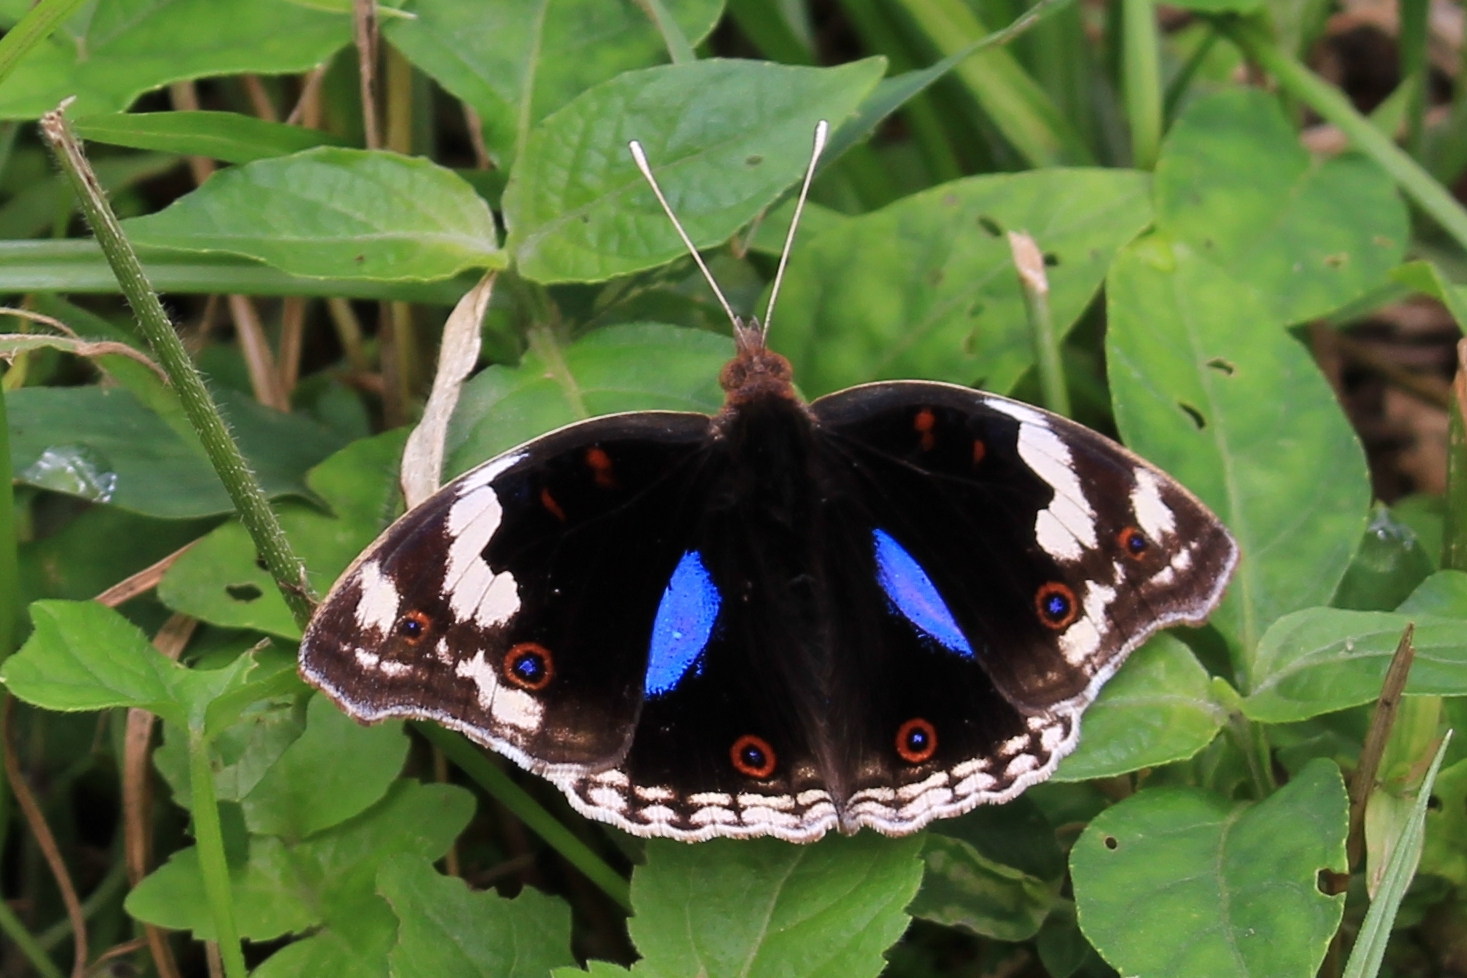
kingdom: Animalia
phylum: Arthropoda
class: Insecta
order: Lepidoptera
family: Nymphalidae
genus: Junonia
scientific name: Junonia oenone
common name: Dark blue pansy
